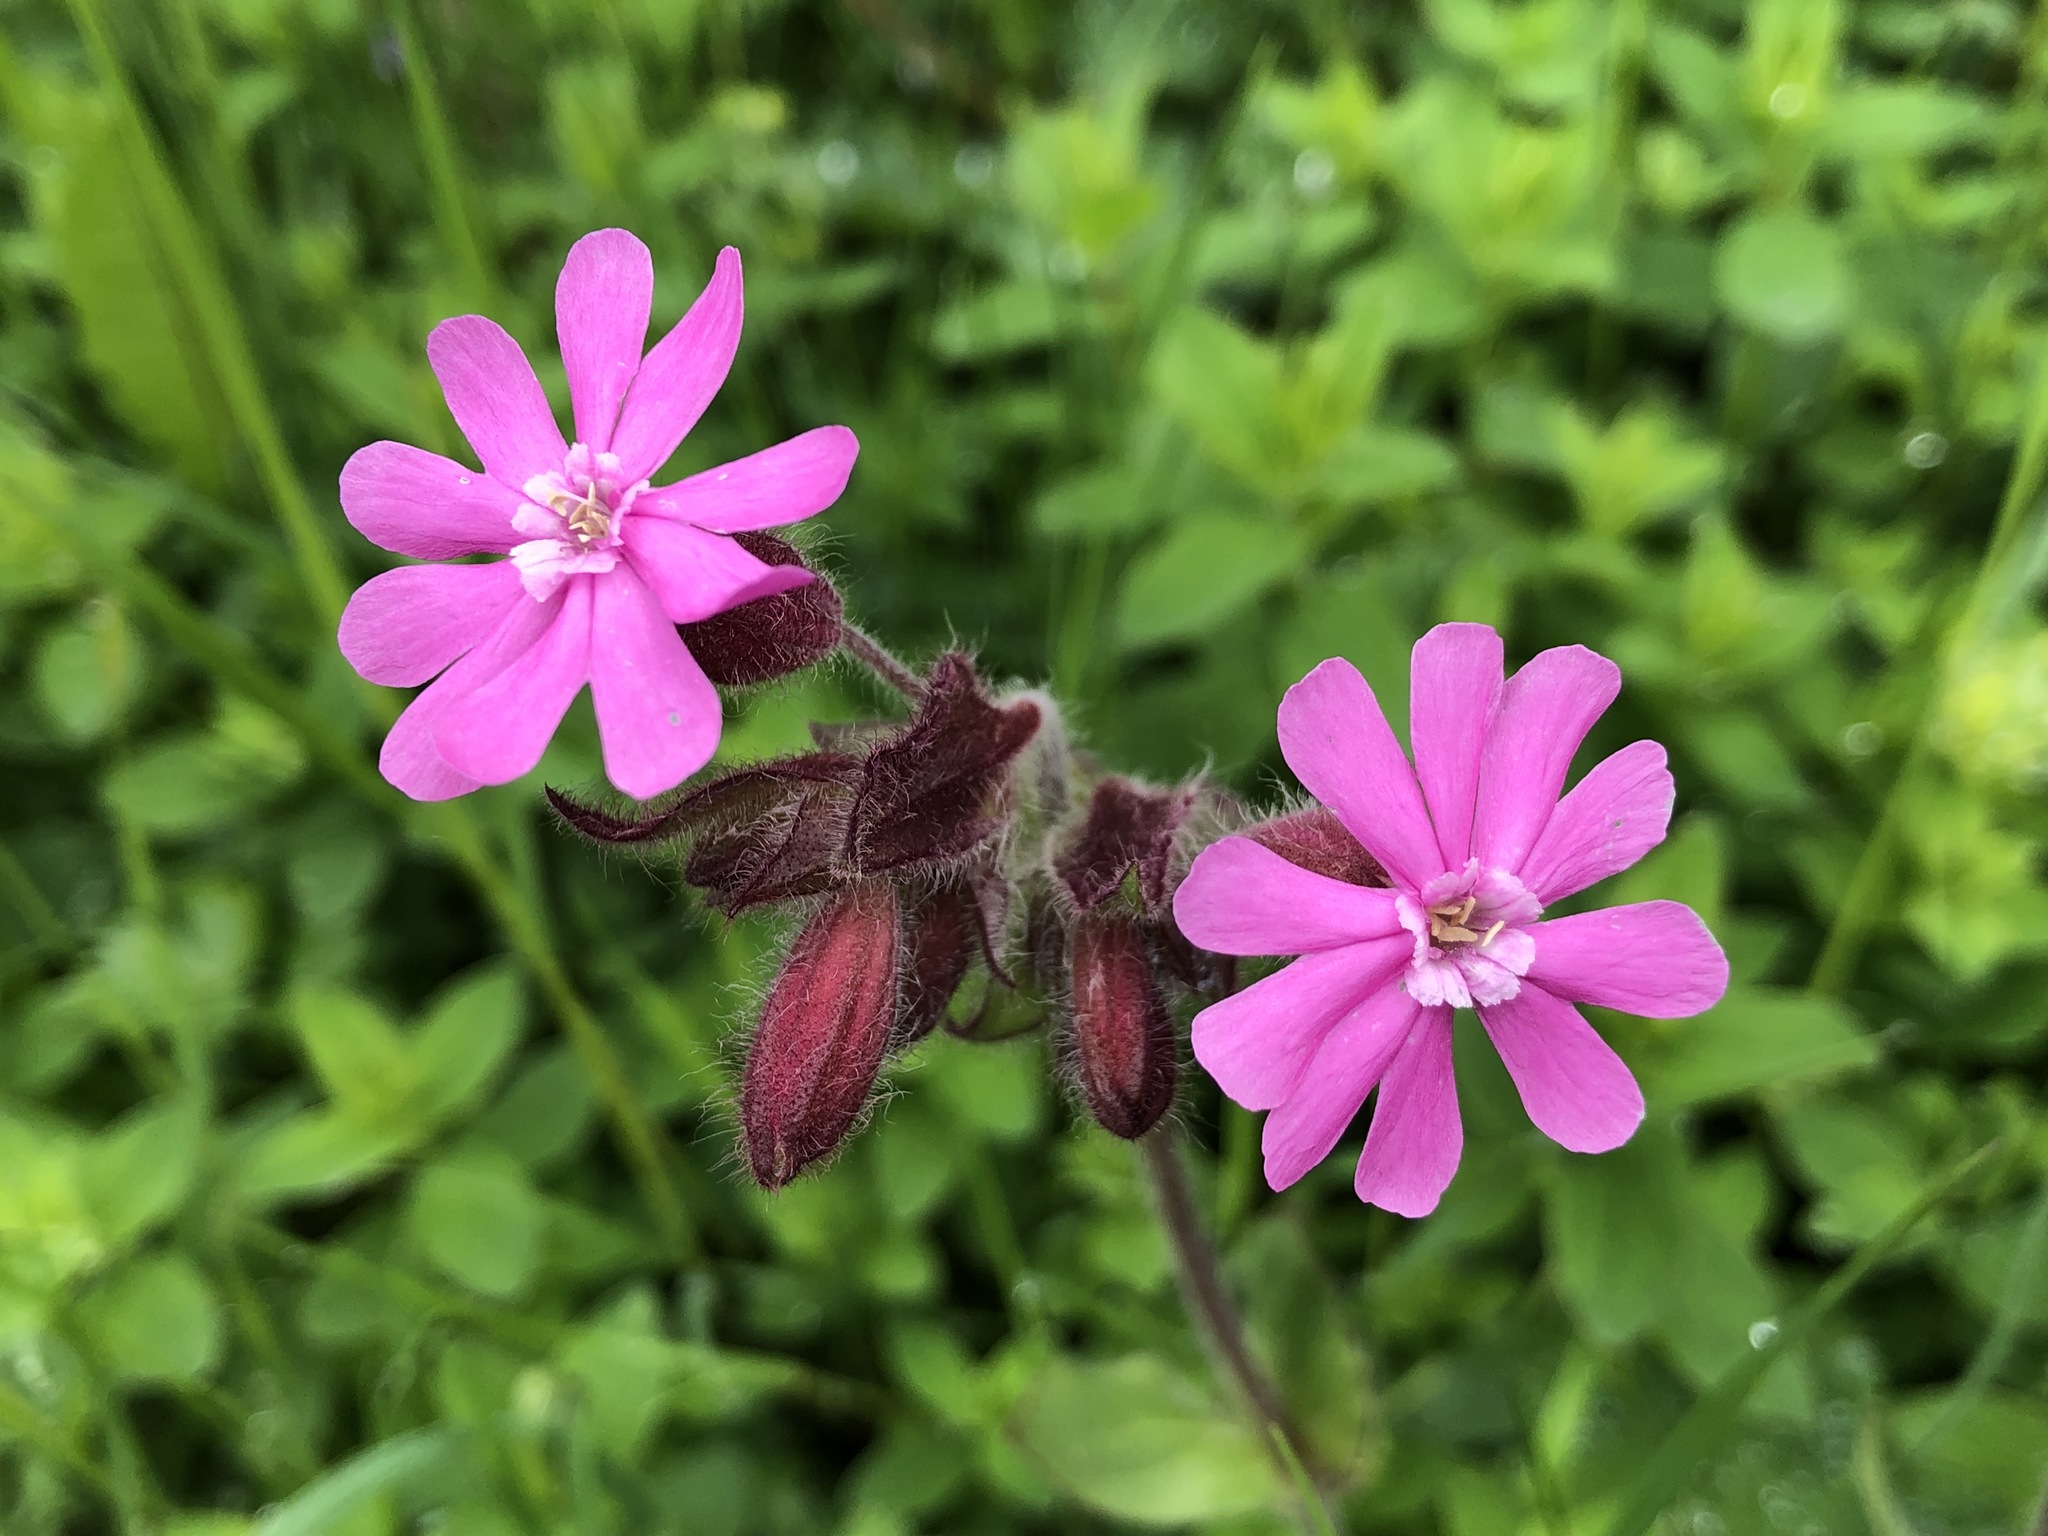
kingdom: Plantae
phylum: Tracheophyta
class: Magnoliopsida
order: Caryophyllales
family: Caryophyllaceae
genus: Silene
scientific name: Silene dioica
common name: Red campion
